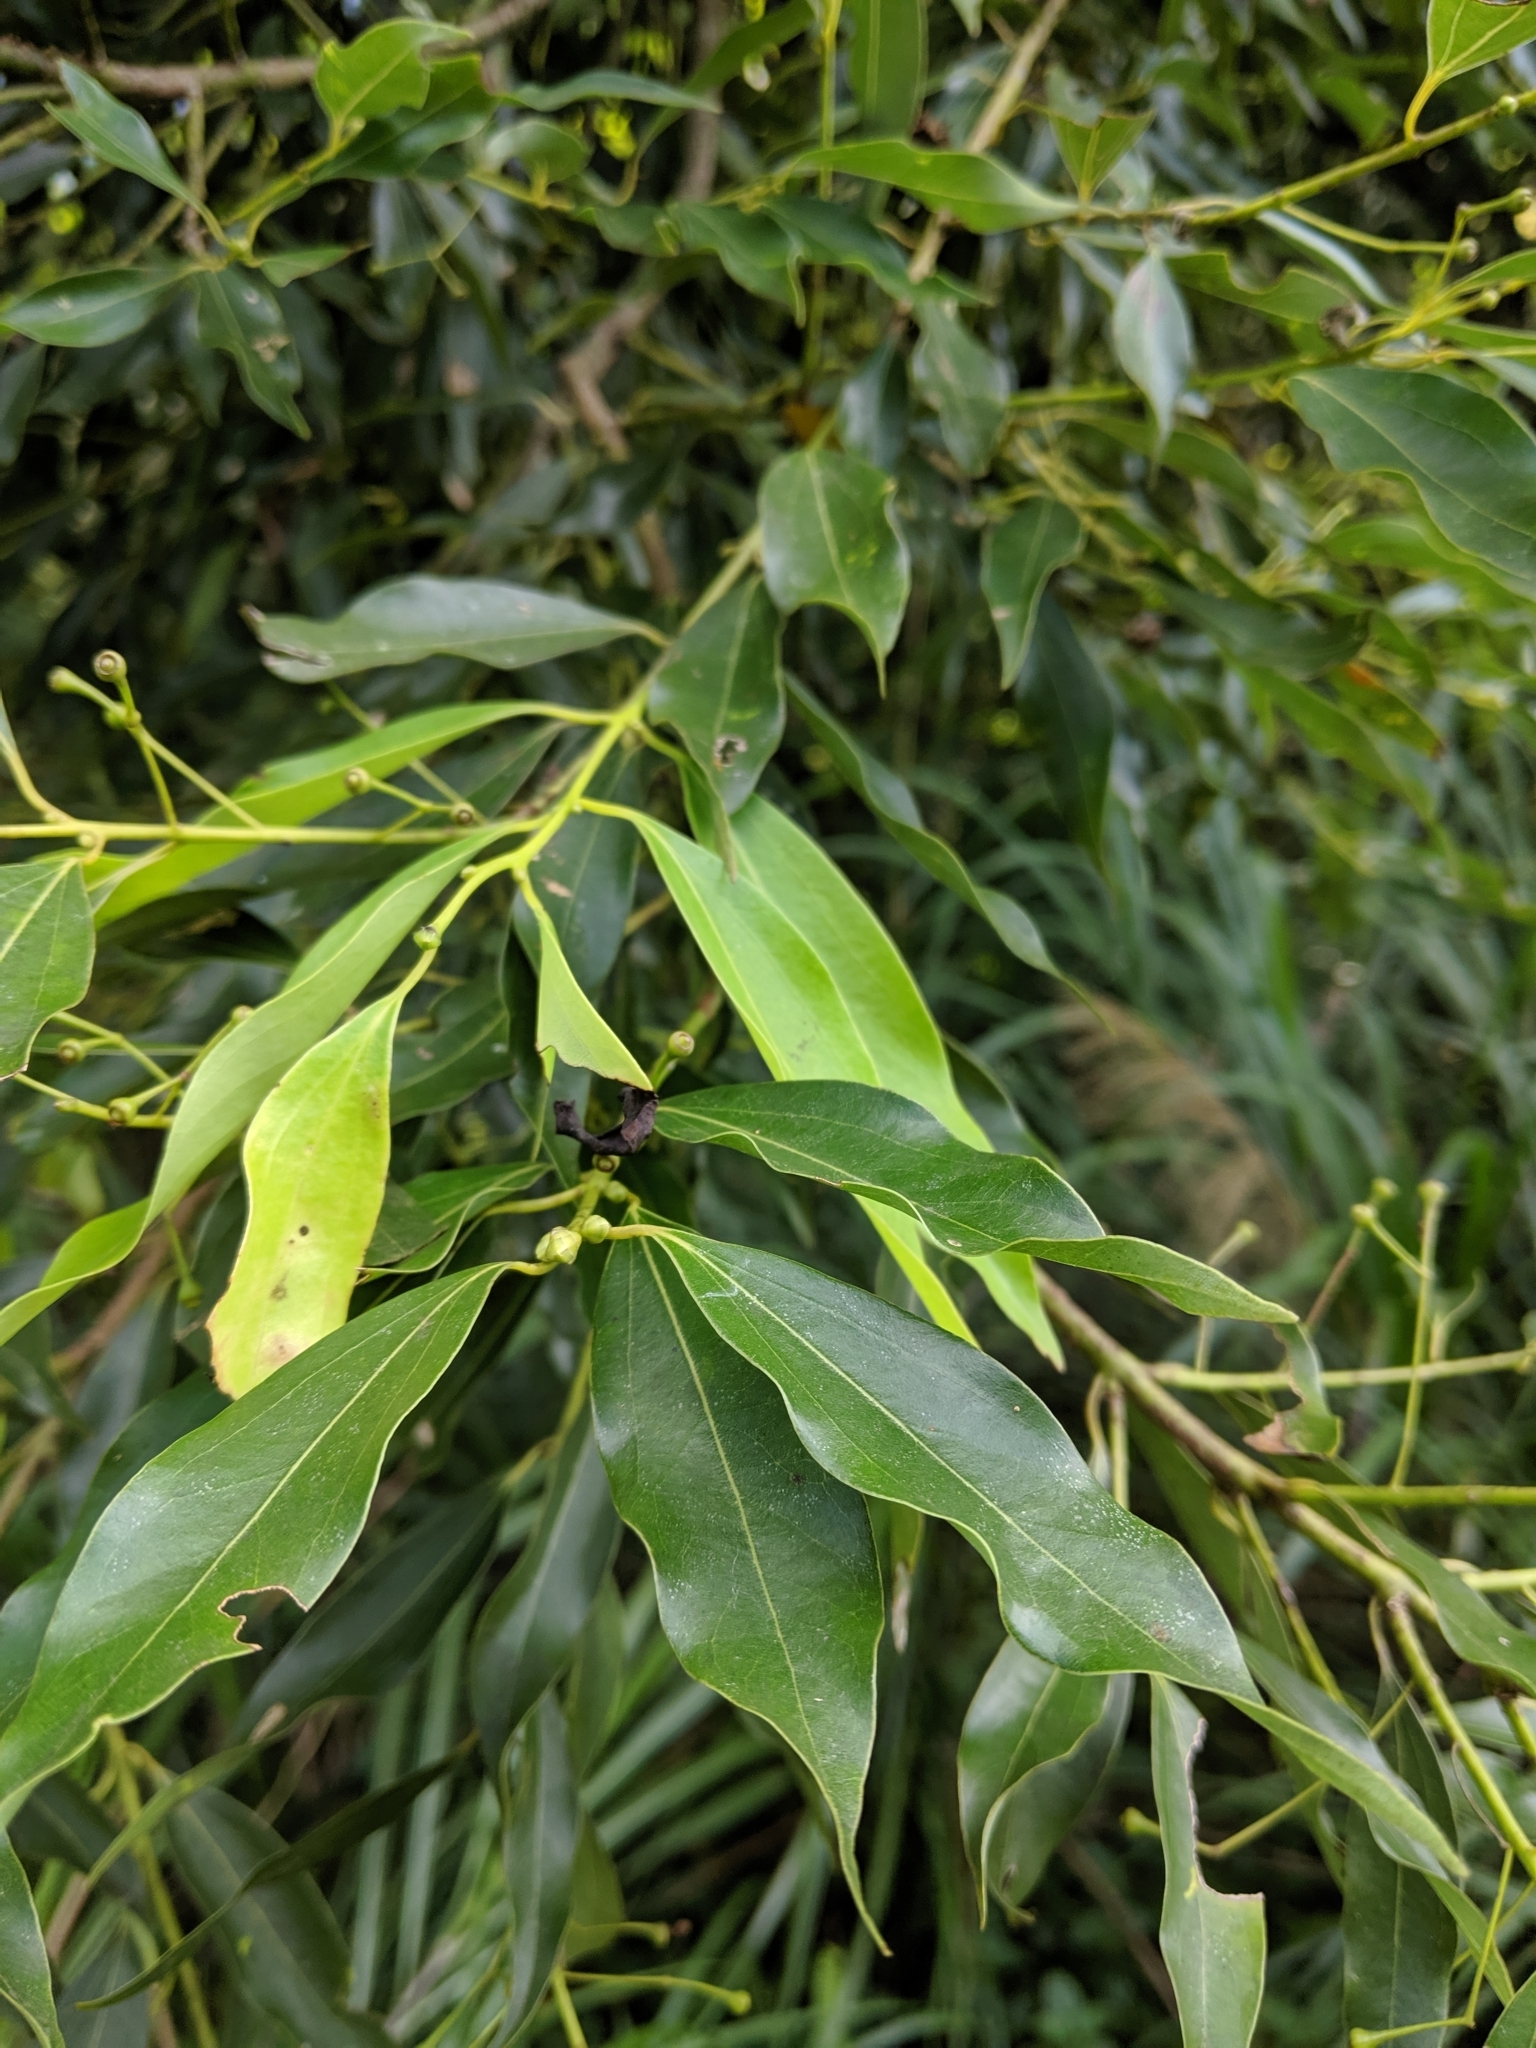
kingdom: Plantae
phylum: Tracheophyta
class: Magnoliopsida
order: Laurales
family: Lauraceae
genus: Cinnamomum
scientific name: Cinnamomum chekiangense
